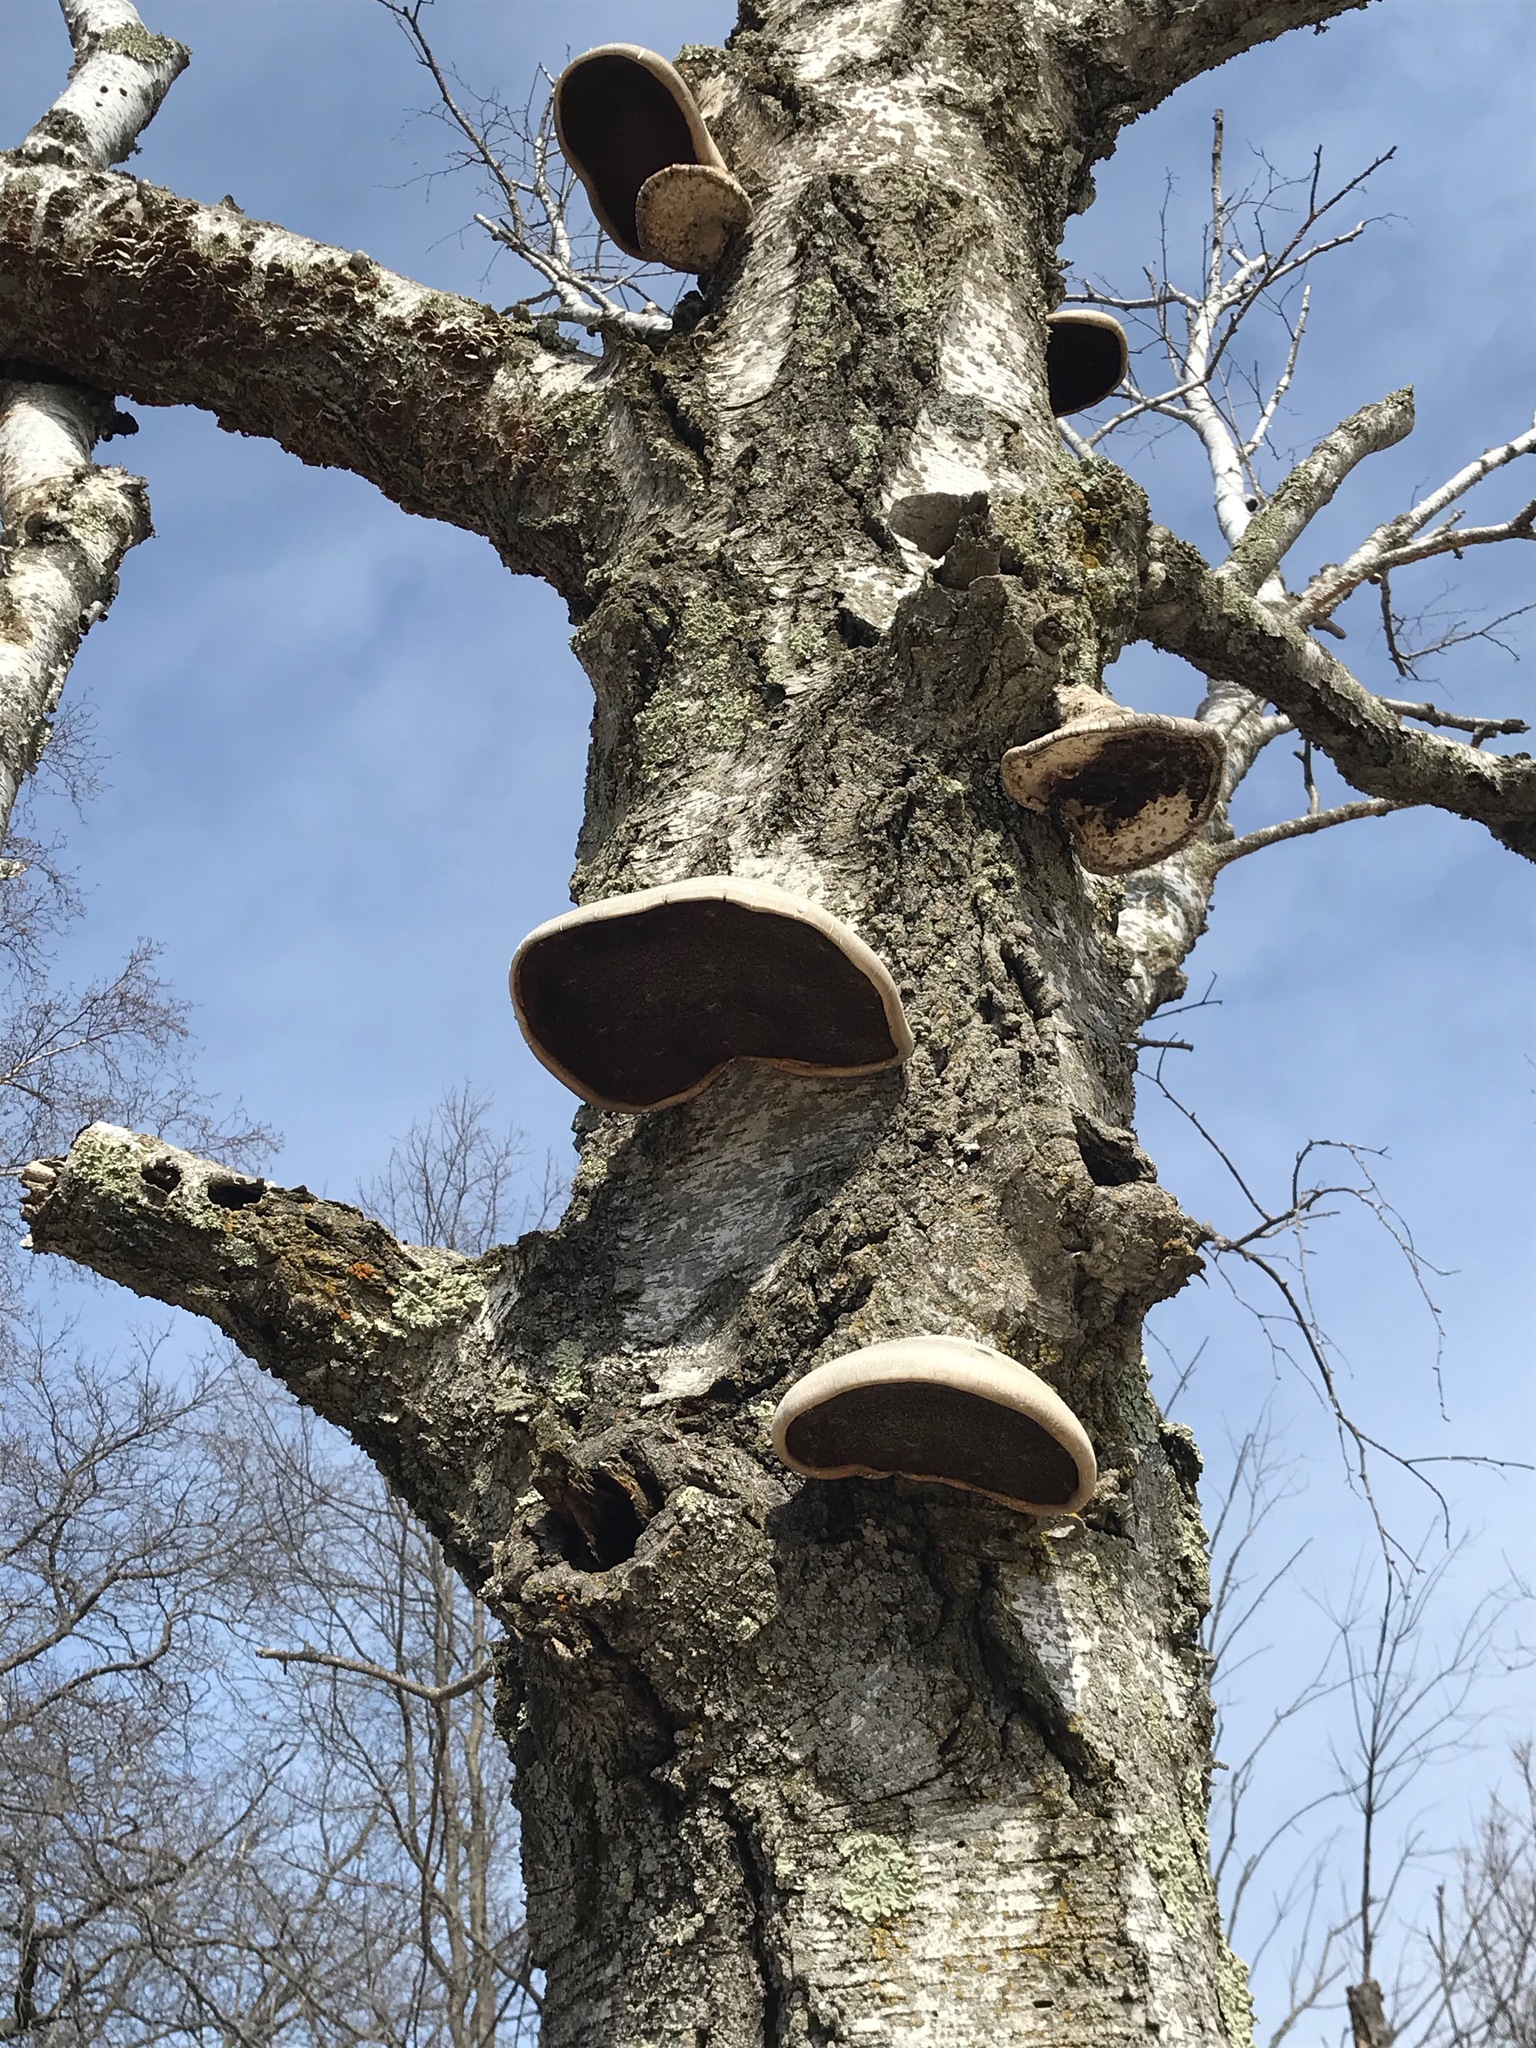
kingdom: Fungi
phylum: Basidiomycota
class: Agaricomycetes
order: Polyporales
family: Fomitopsidaceae
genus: Fomitopsis
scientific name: Fomitopsis betulina
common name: Birch polypore
